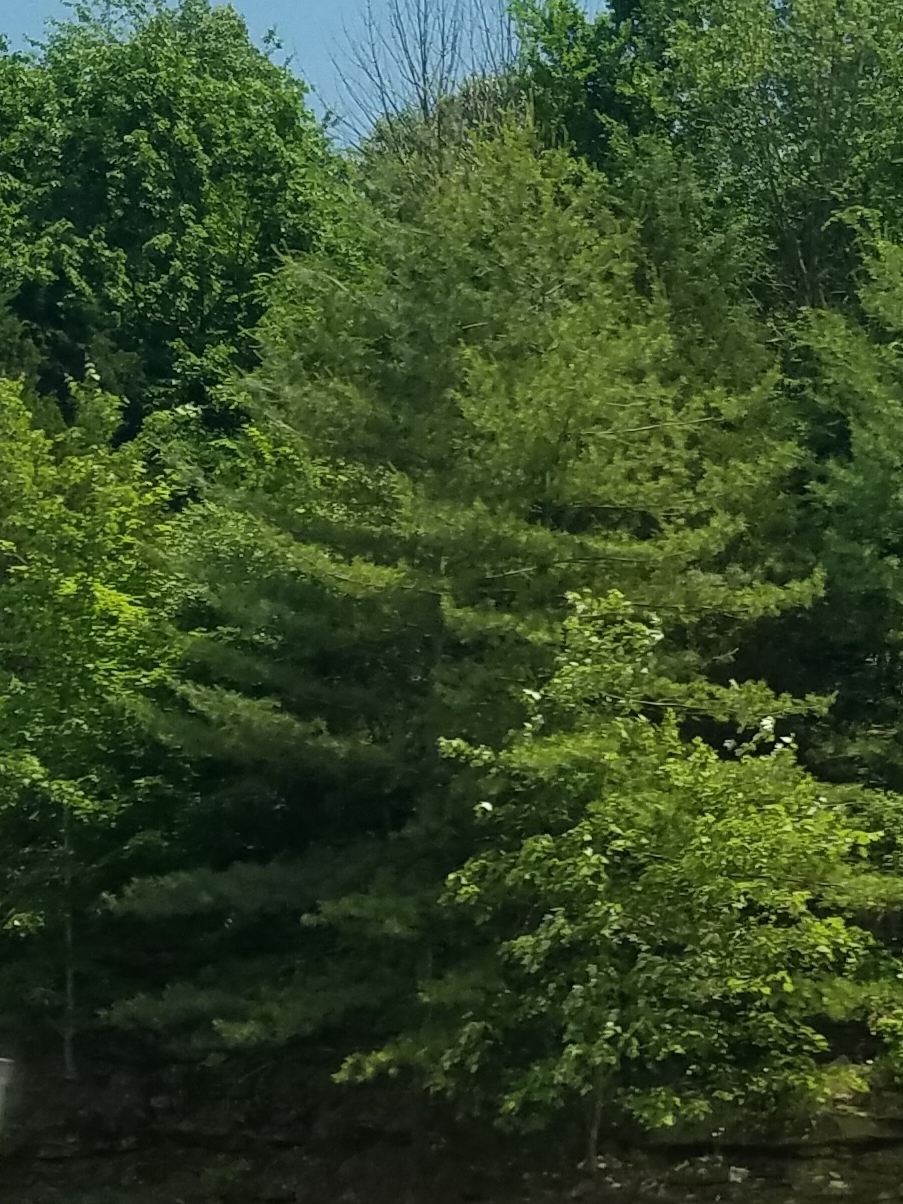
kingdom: Plantae
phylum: Tracheophyta
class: Pinopsida
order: Pinales
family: Pinaceae
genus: Pinus
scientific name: Pinus strobus
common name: Weymouth pine
